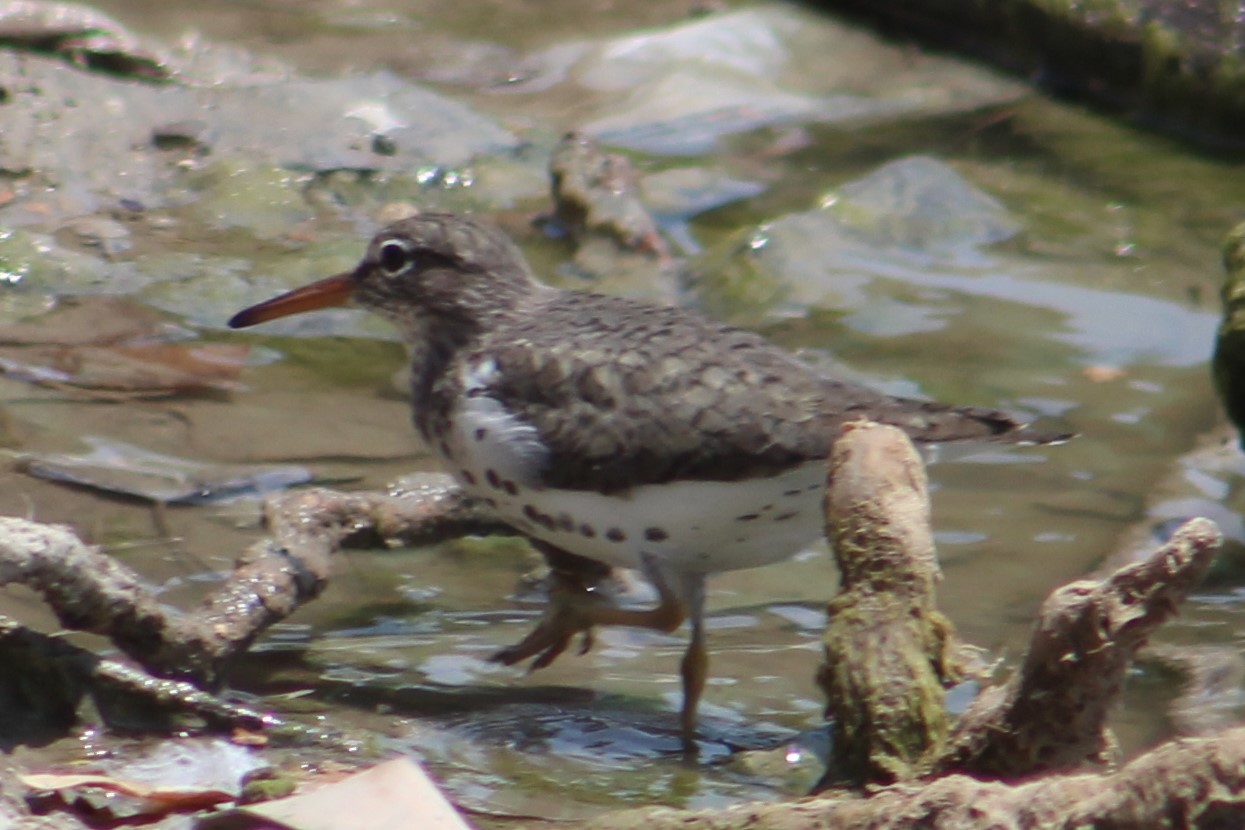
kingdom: Animalia
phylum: Chordata
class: Aves
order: Charadriiformes
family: Scolopacidae
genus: Actitis
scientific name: Actitis macularius
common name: Spotted sandpiper
